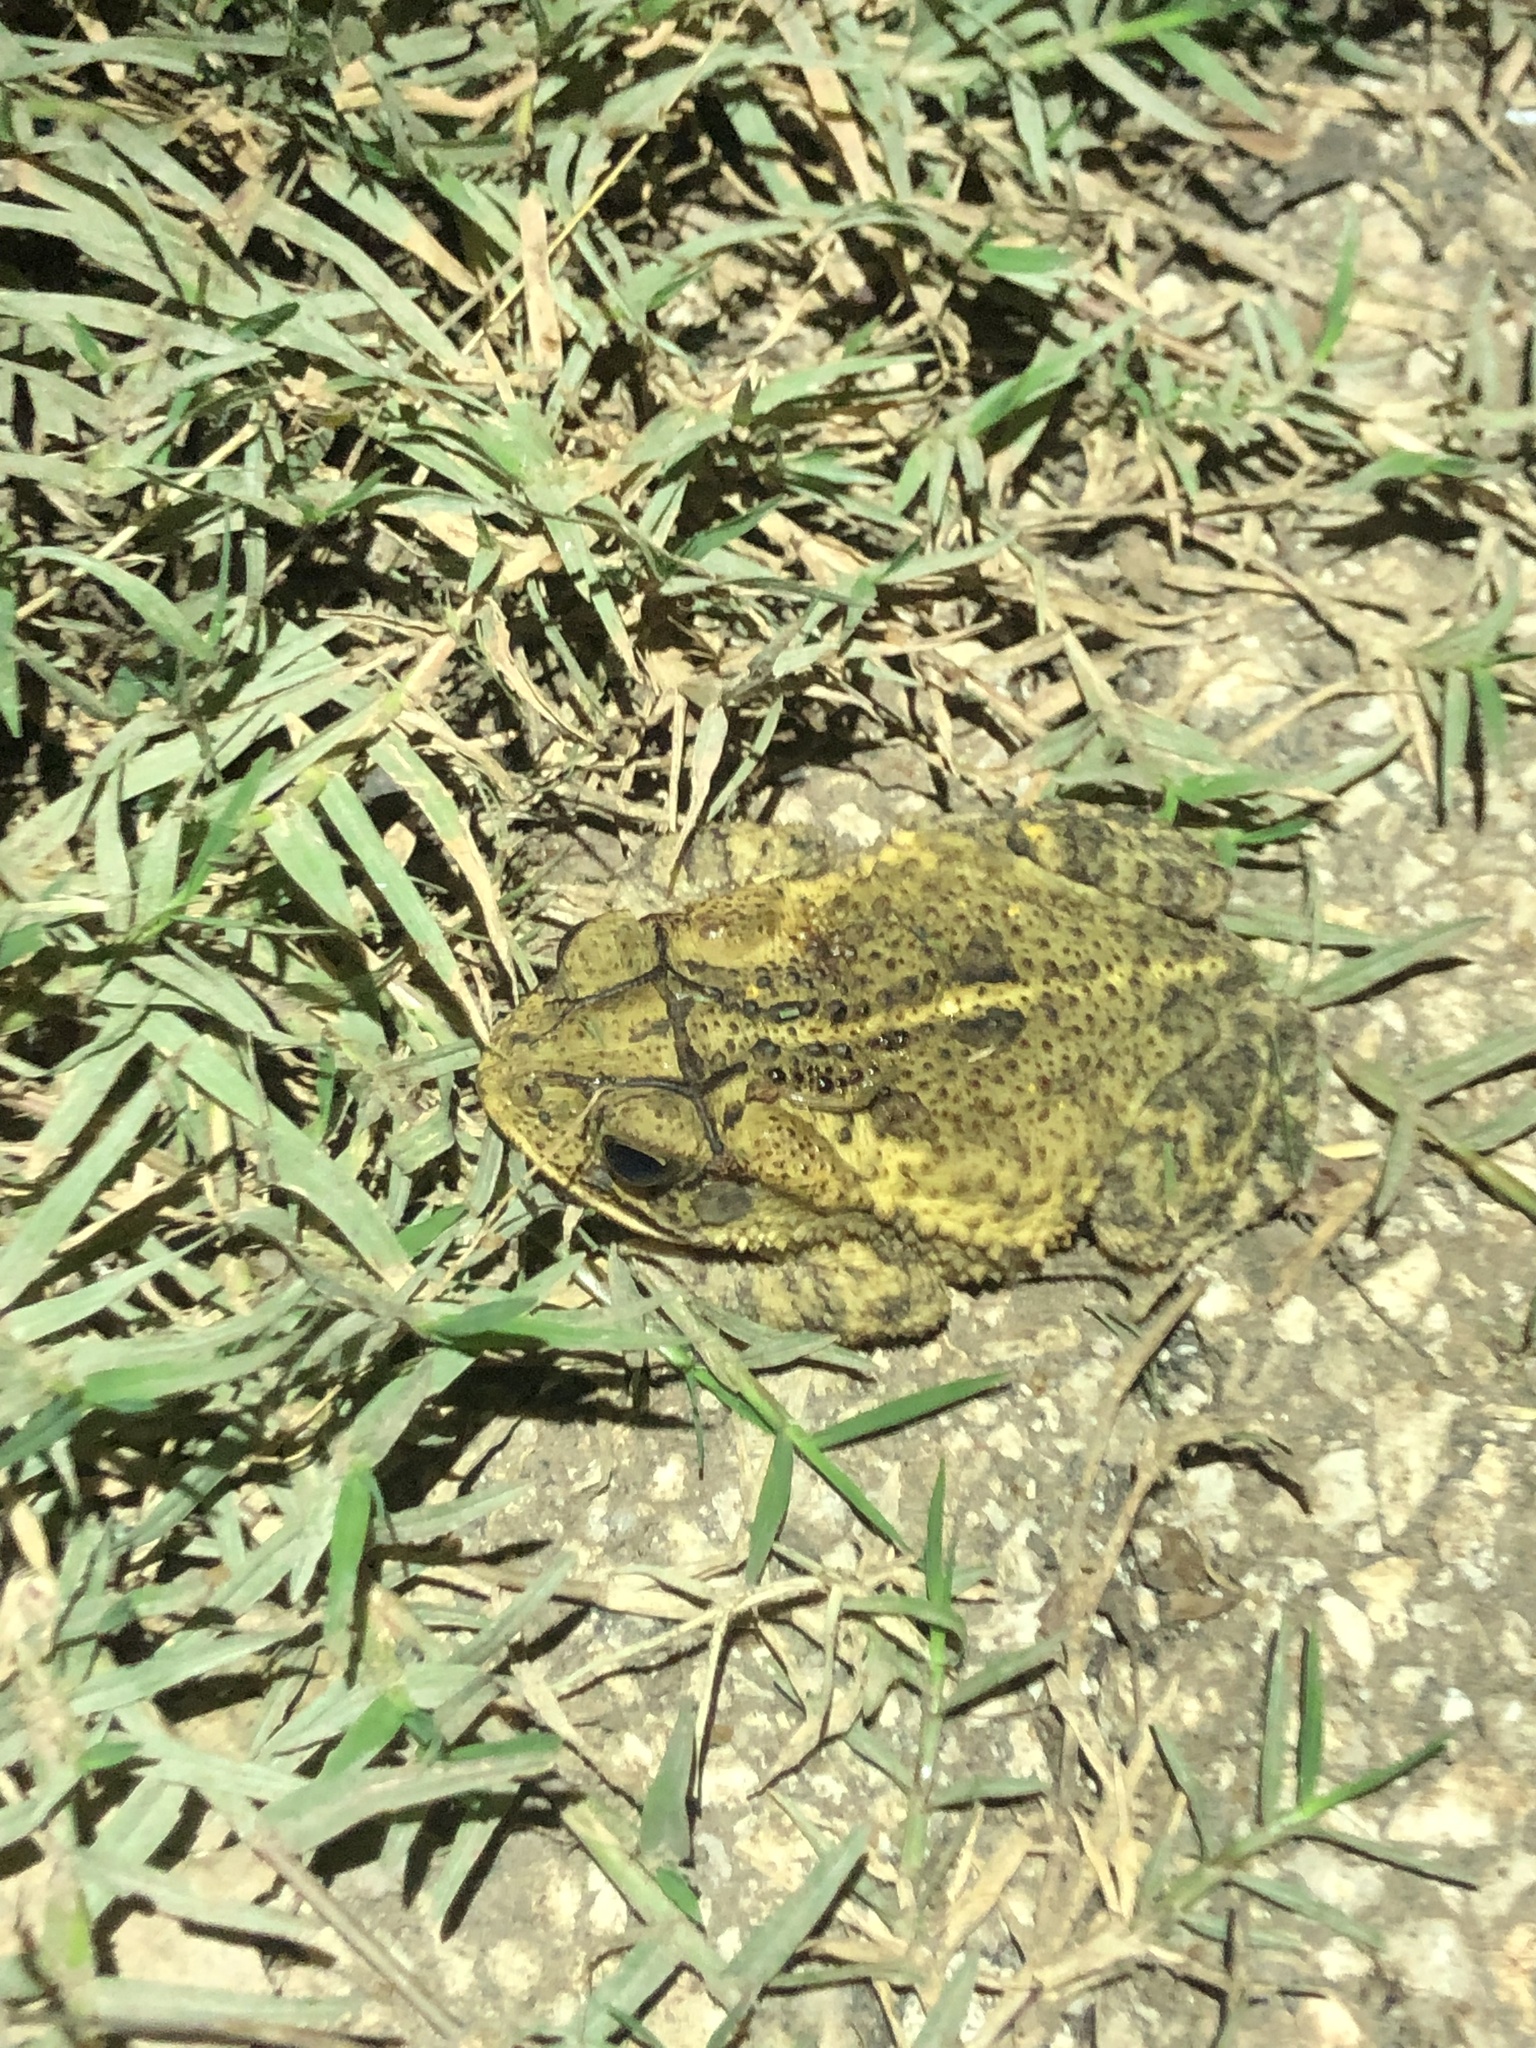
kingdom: Animalia
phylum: Chordata
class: Amphibia
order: Anura
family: Bufonidae
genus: Incilius
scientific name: Incilius nebulifer
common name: Gulf coast toad
